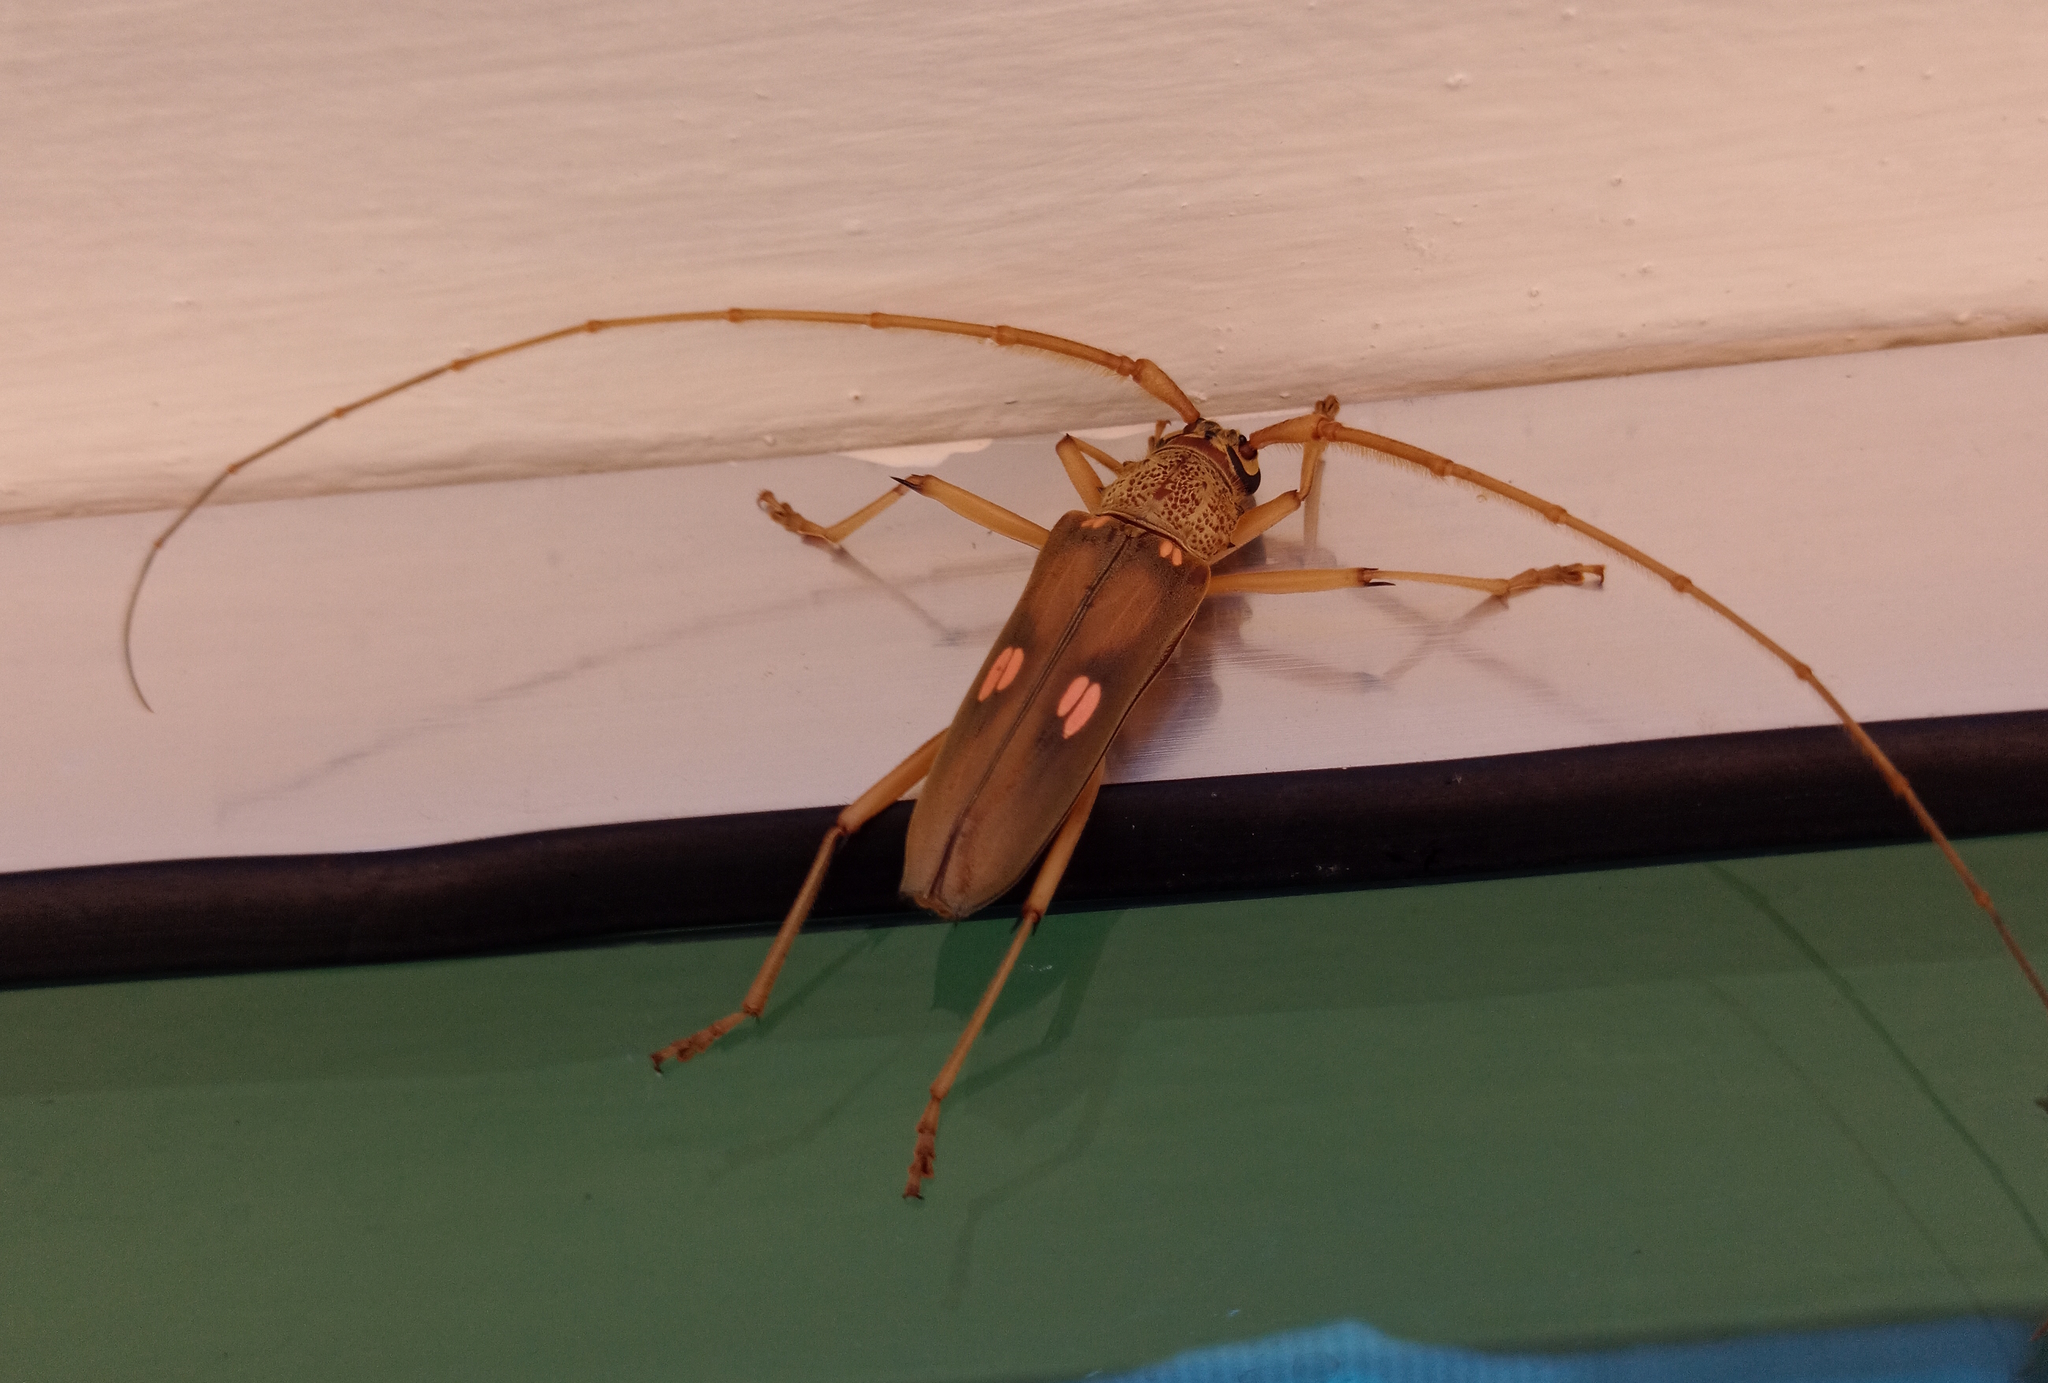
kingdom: Animalia
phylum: Arthropoda
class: Insecta
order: Coleoptera
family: Cerambycidae
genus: Susuacanga
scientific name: Susuacanga octoguttata
